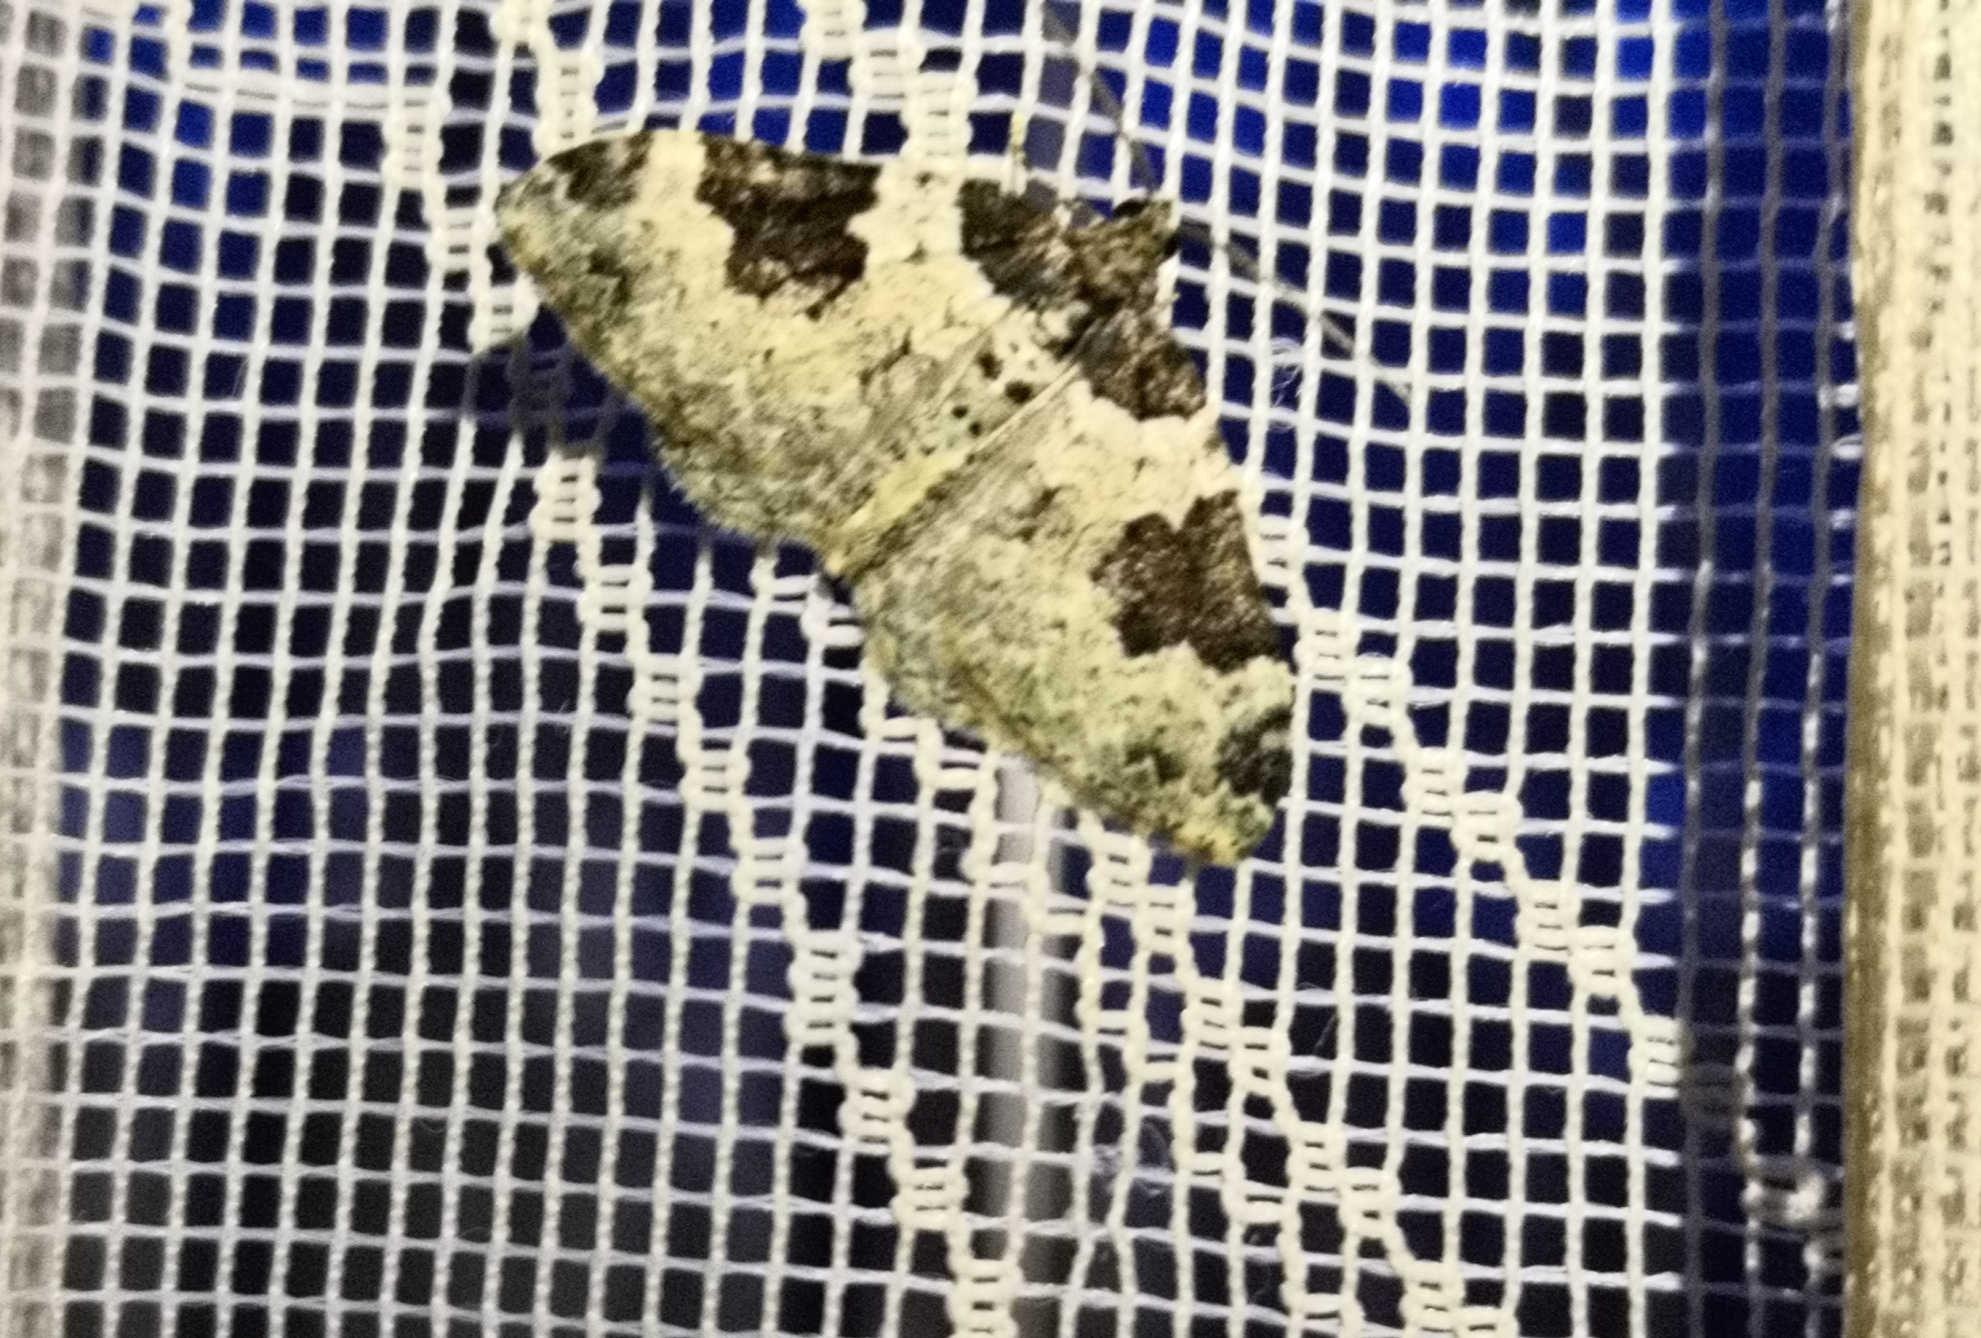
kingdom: Animalia
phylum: Arthropoda
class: Insecta
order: Lepidoptera
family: Geometridae
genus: Xanthorhoe
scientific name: Xanthorhoe fluctuata
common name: Garden carpet
